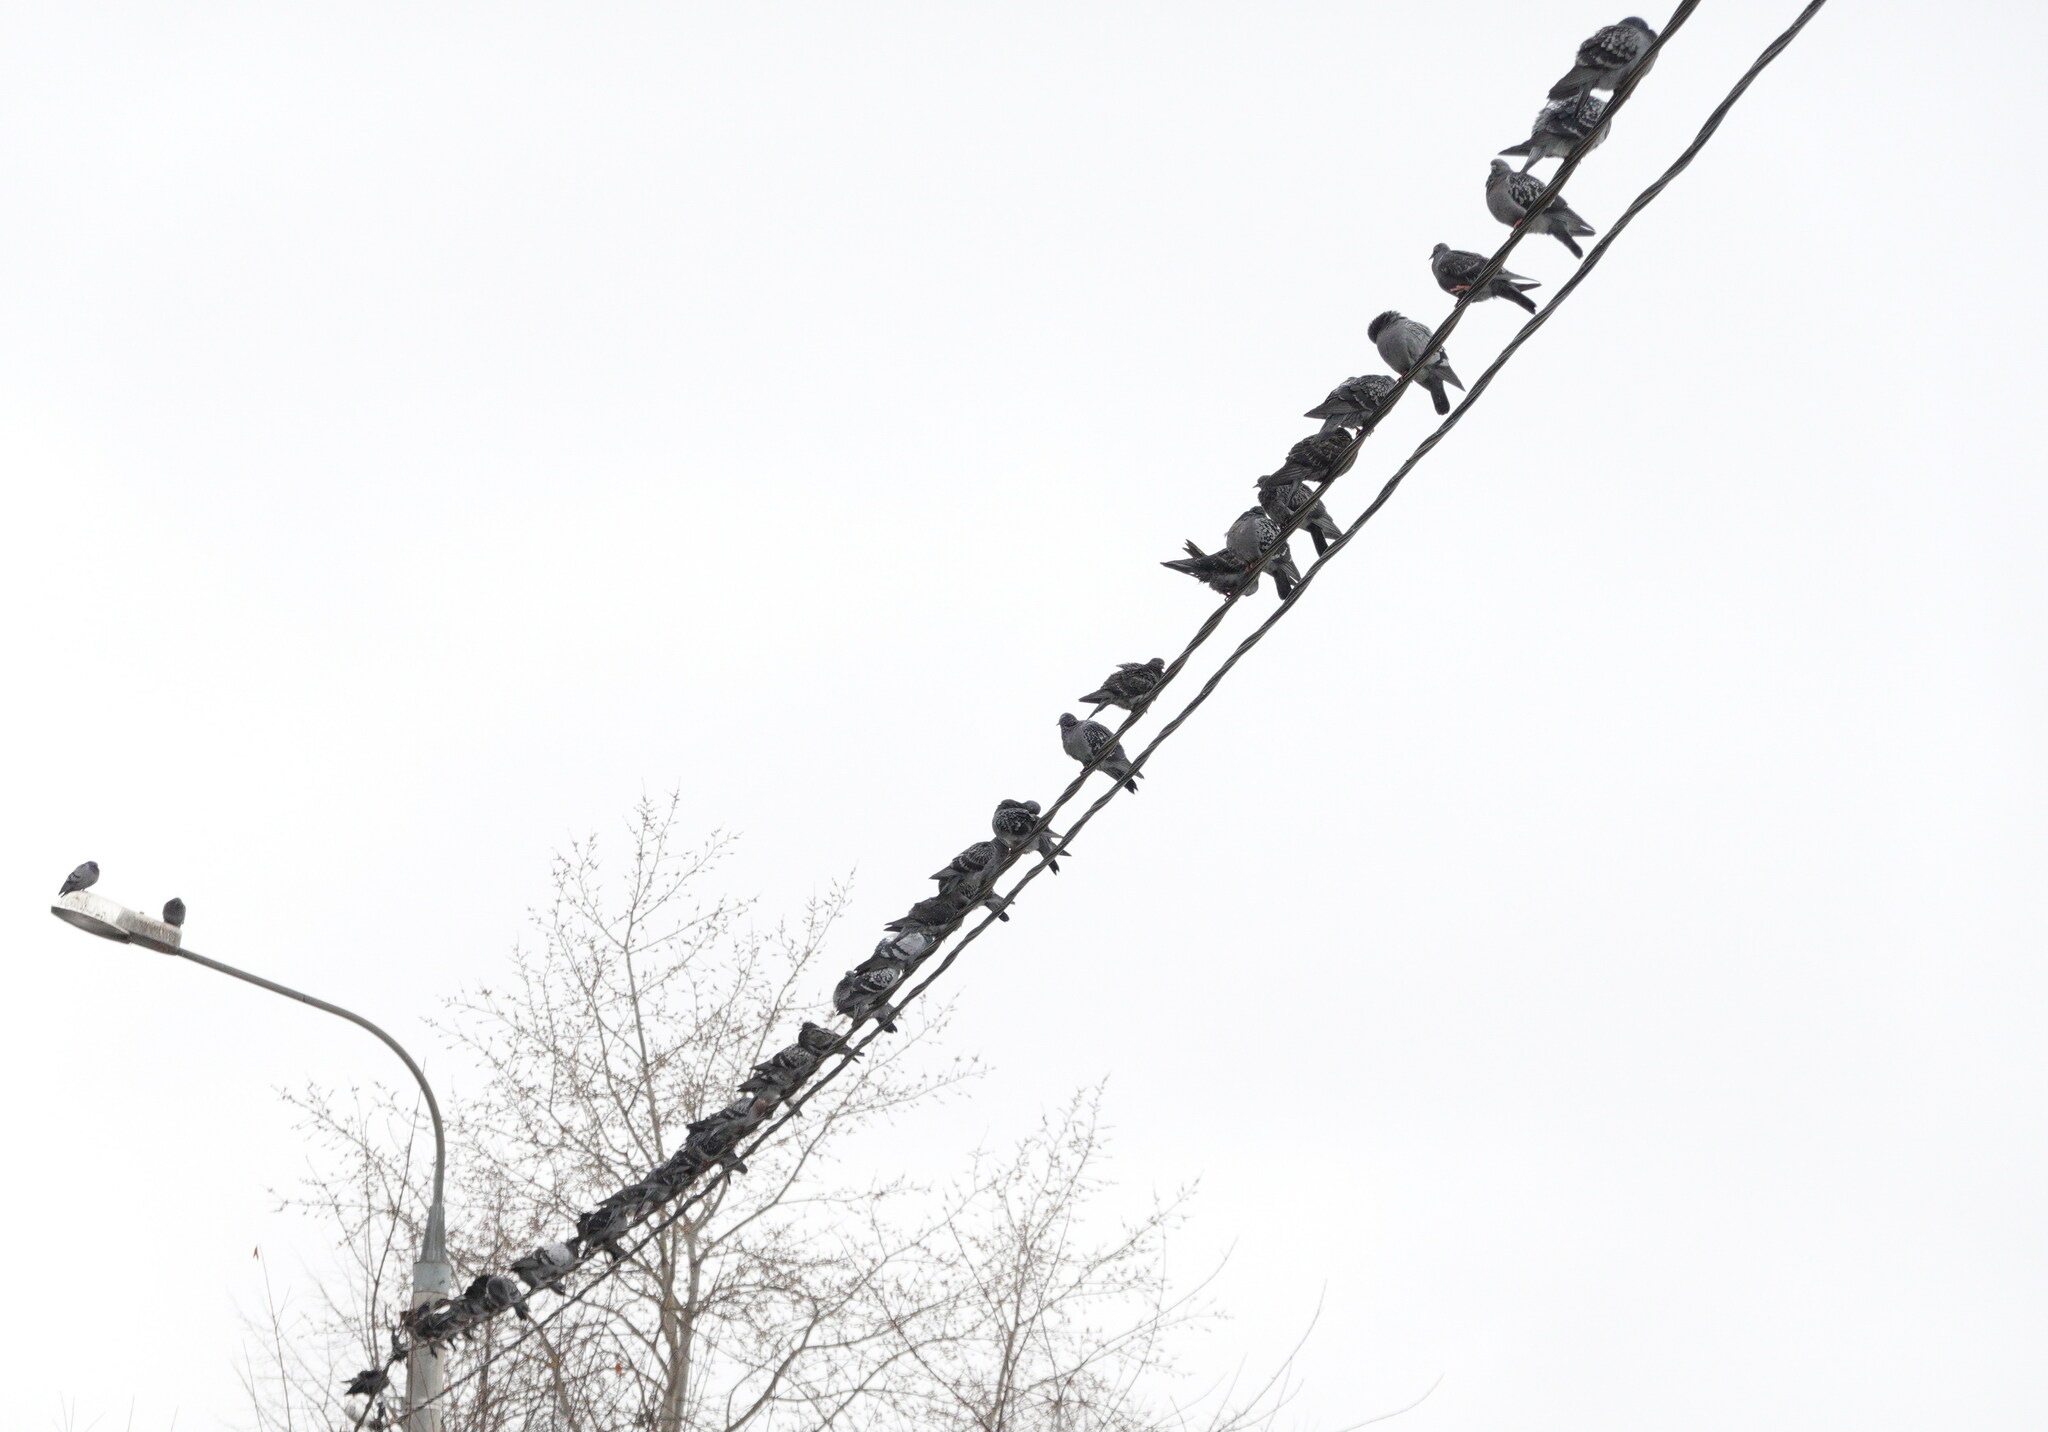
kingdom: Animalia
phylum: Chordata
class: Aves
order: Columbiformes
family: Columbidae
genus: Columba
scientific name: Columba livia
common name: Rock pigeon
